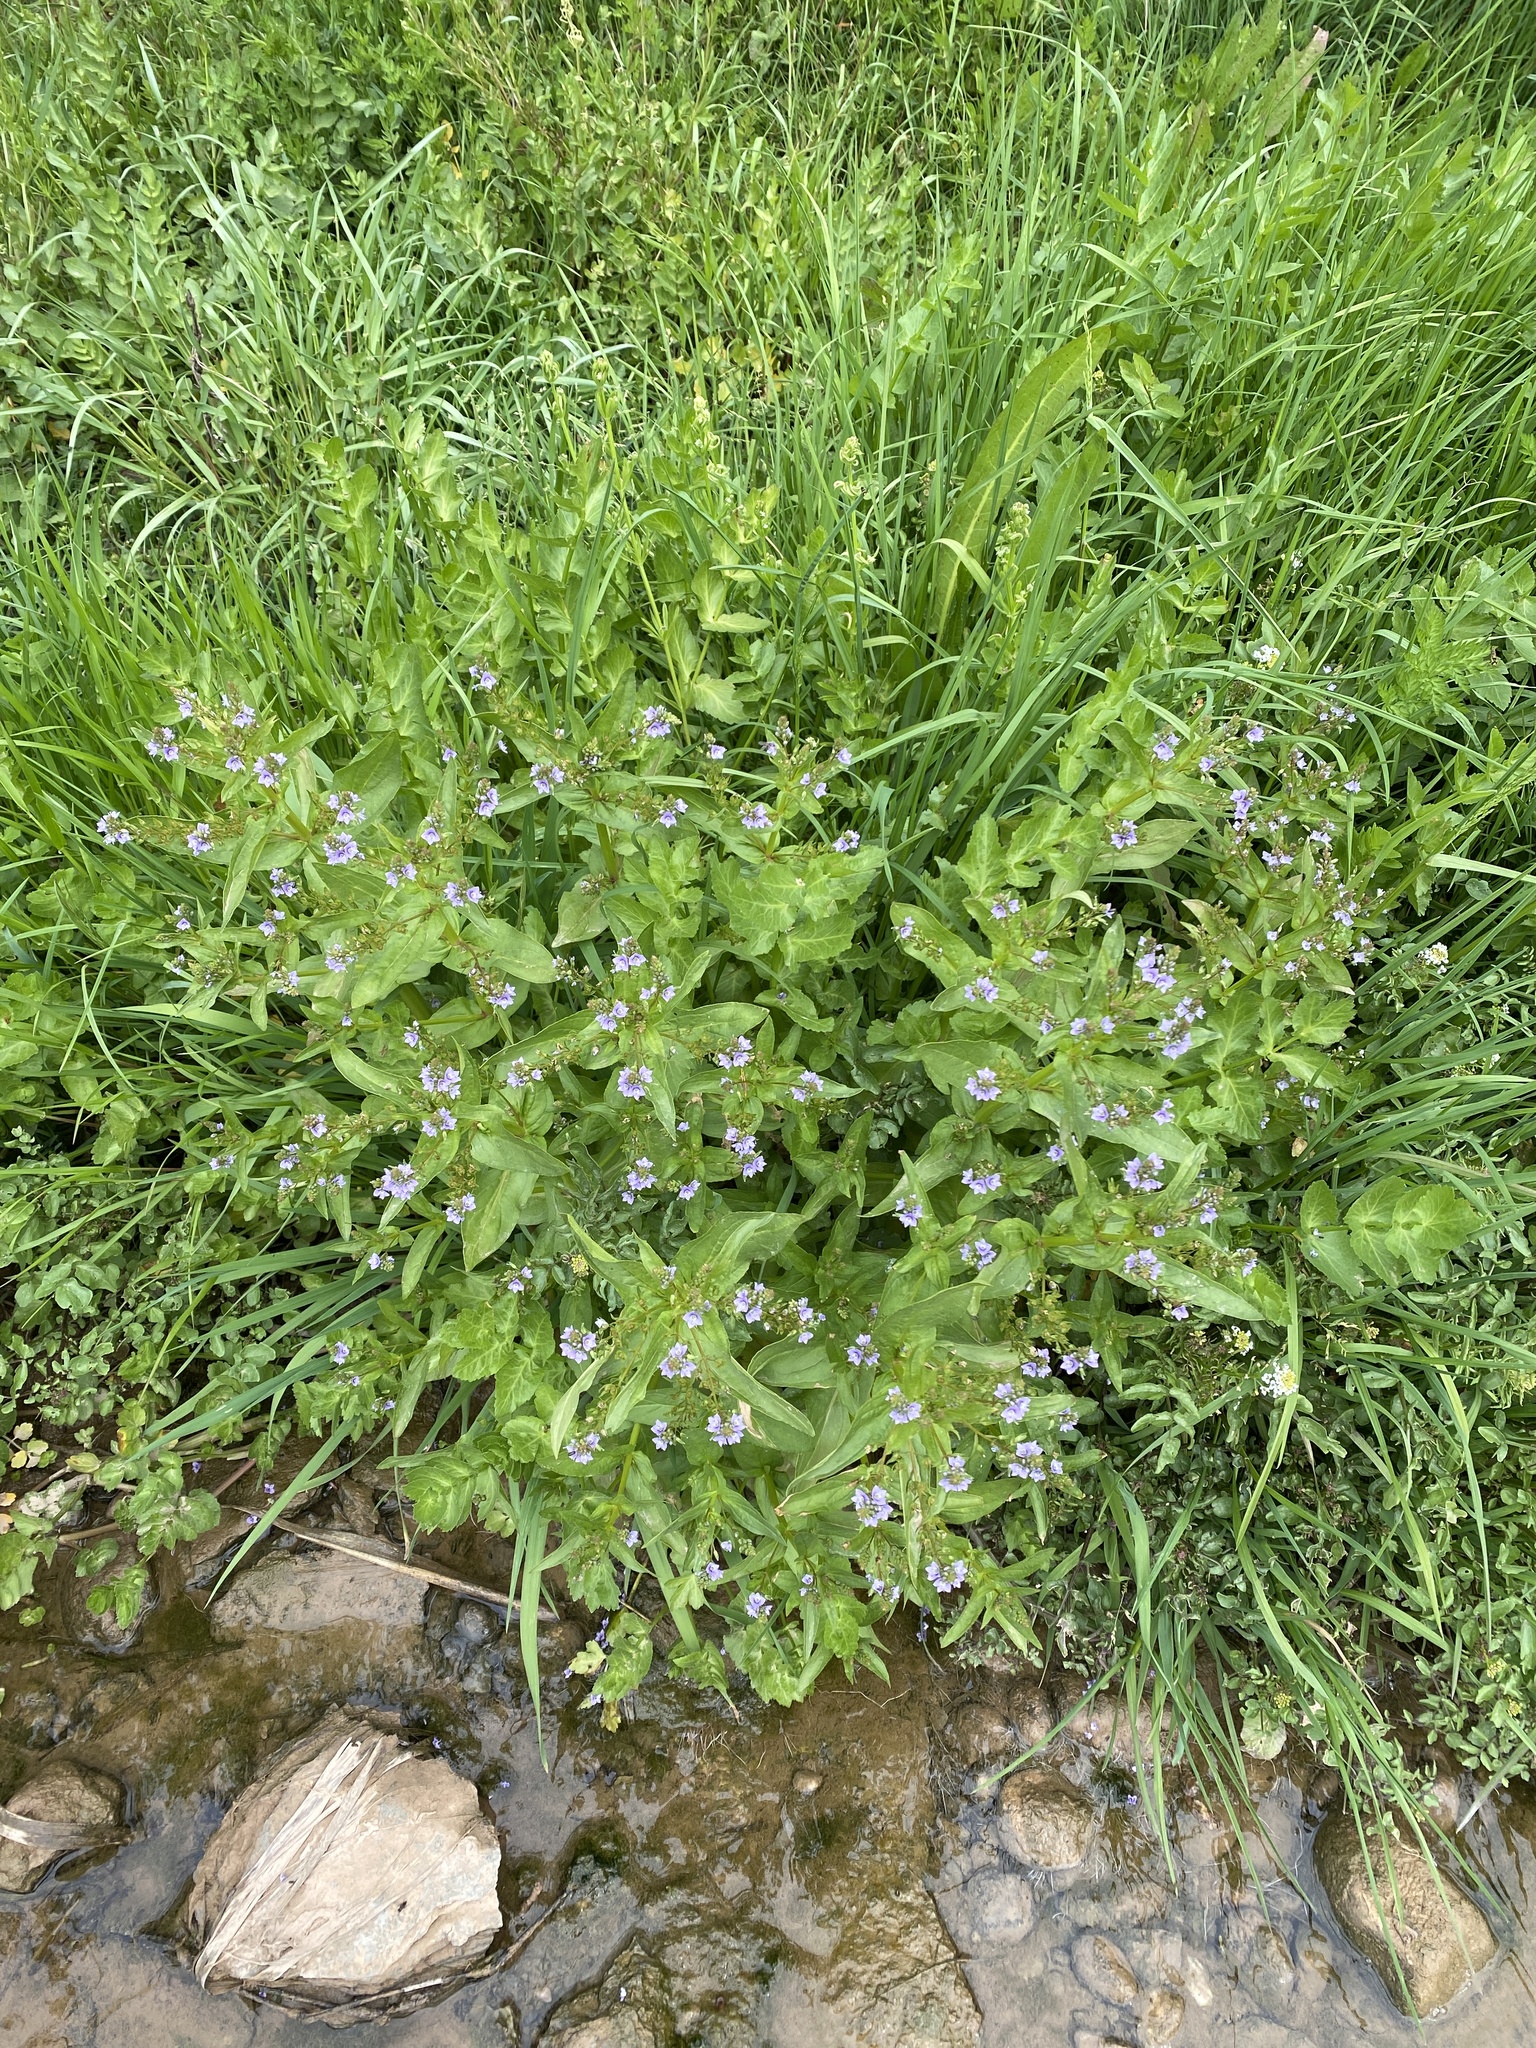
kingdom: Plantae
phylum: Tracheophyta
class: Magnoliopsida
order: Lamiales
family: Plantaginaceae
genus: Veronica
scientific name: Veronica anagallis-aquatica
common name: Water speedwell
